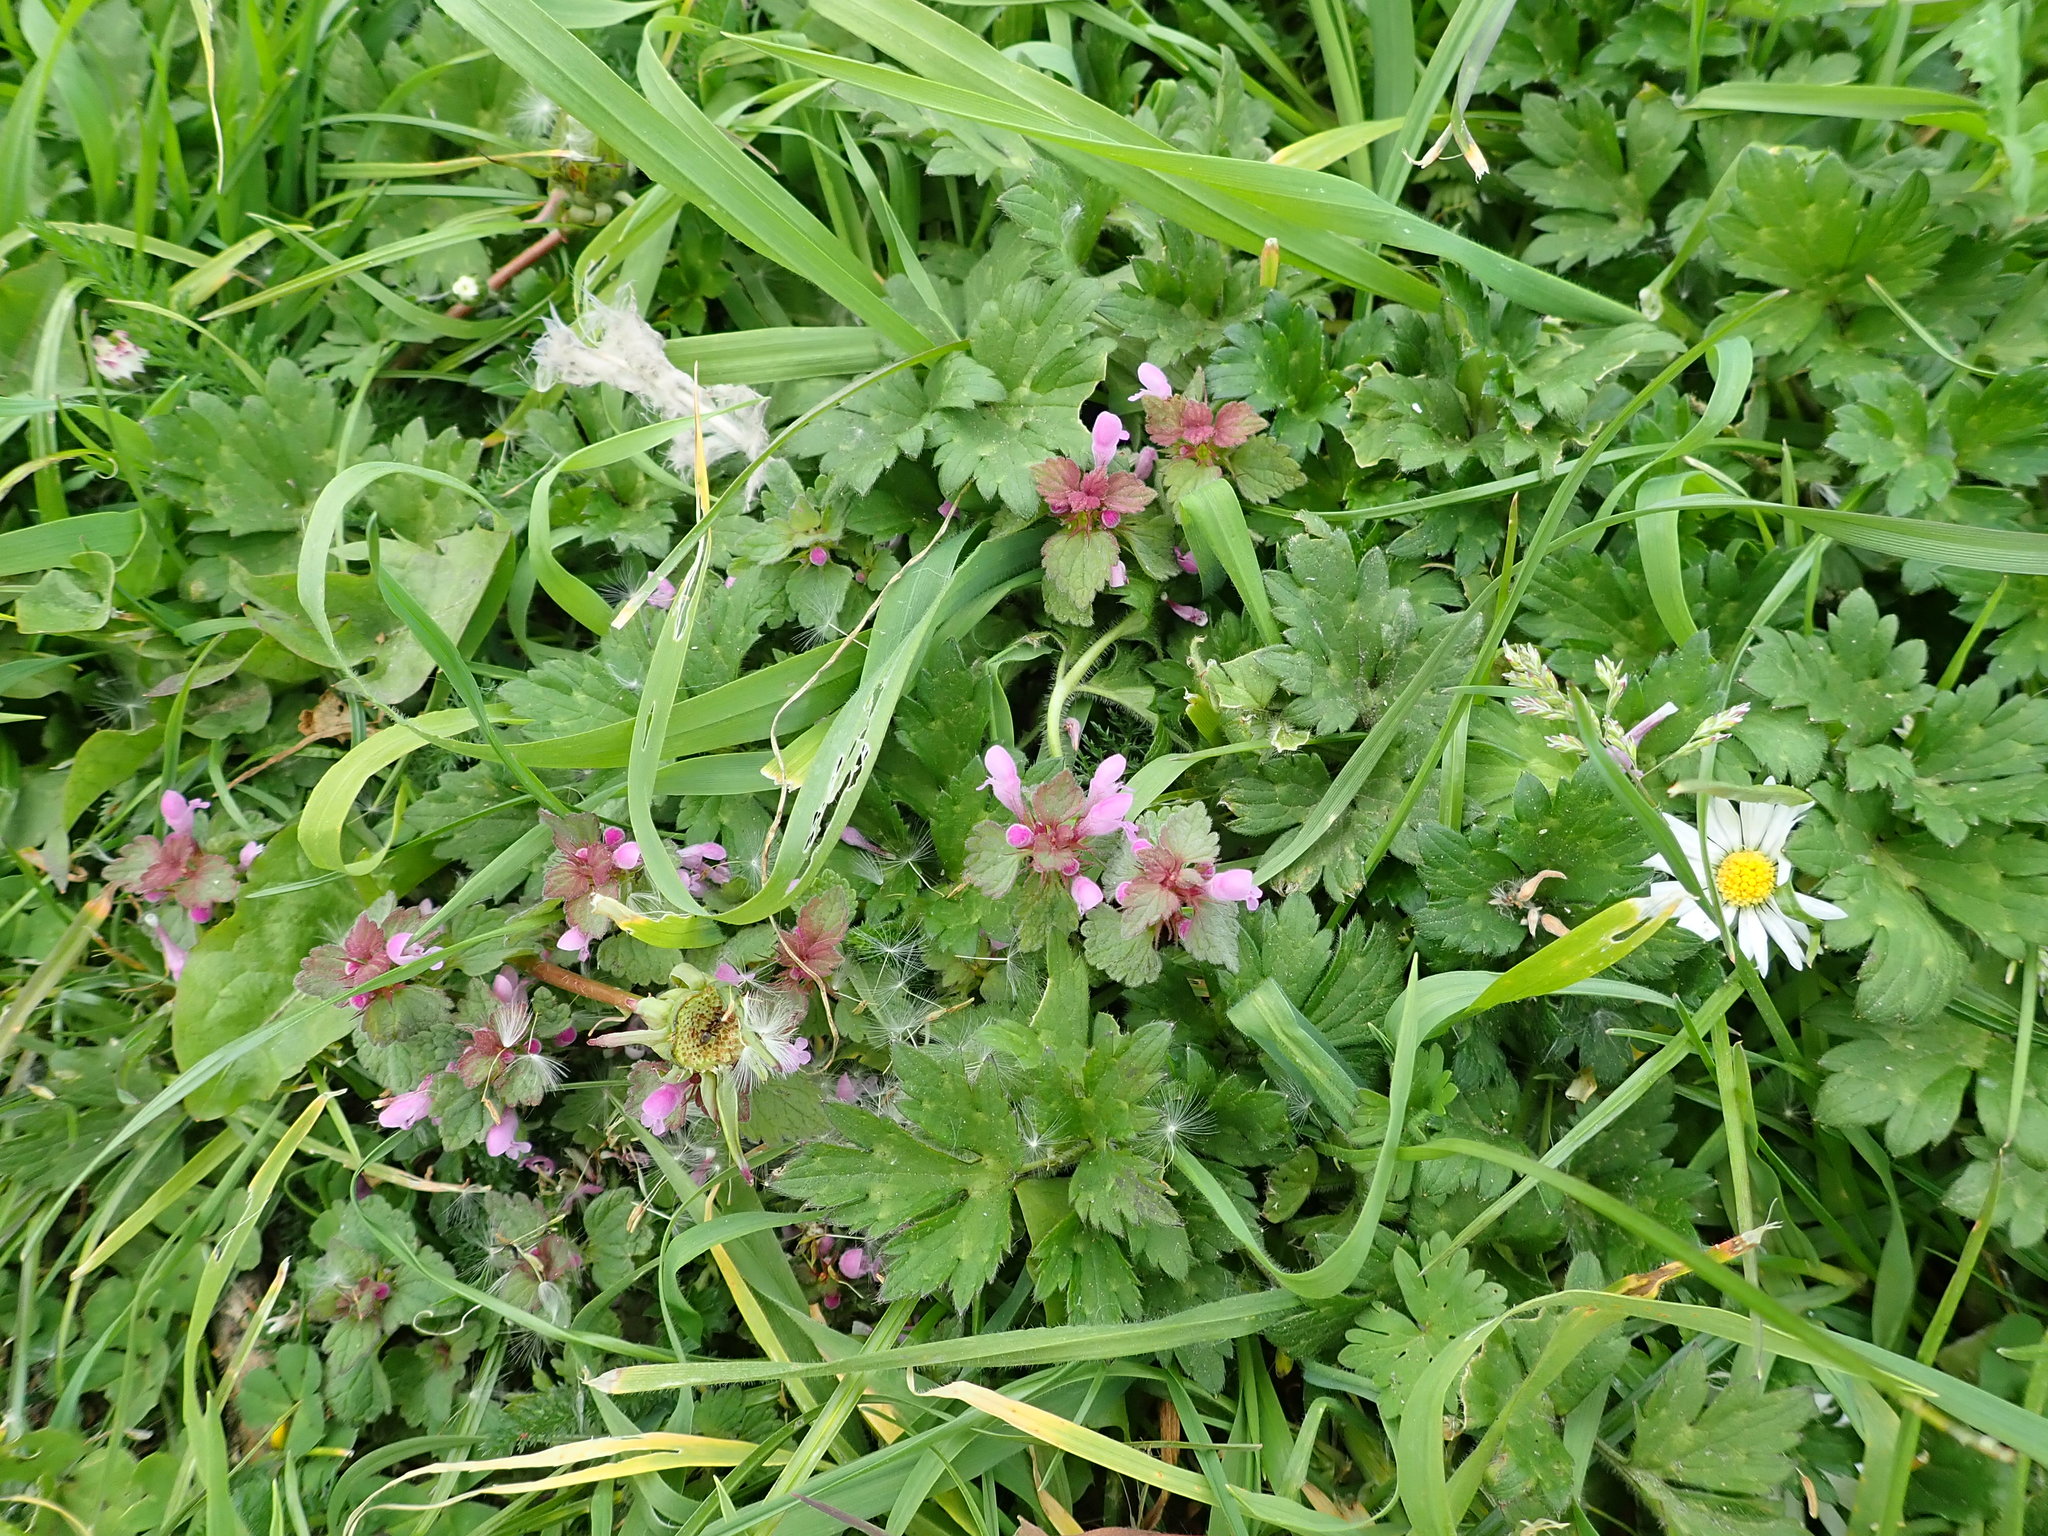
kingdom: Plantae
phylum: Tracheophyta
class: Magnoliopsida
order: Lamiales
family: Lamiaceae
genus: Lamium
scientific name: Lamium purpureum
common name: Red dead-nettle
